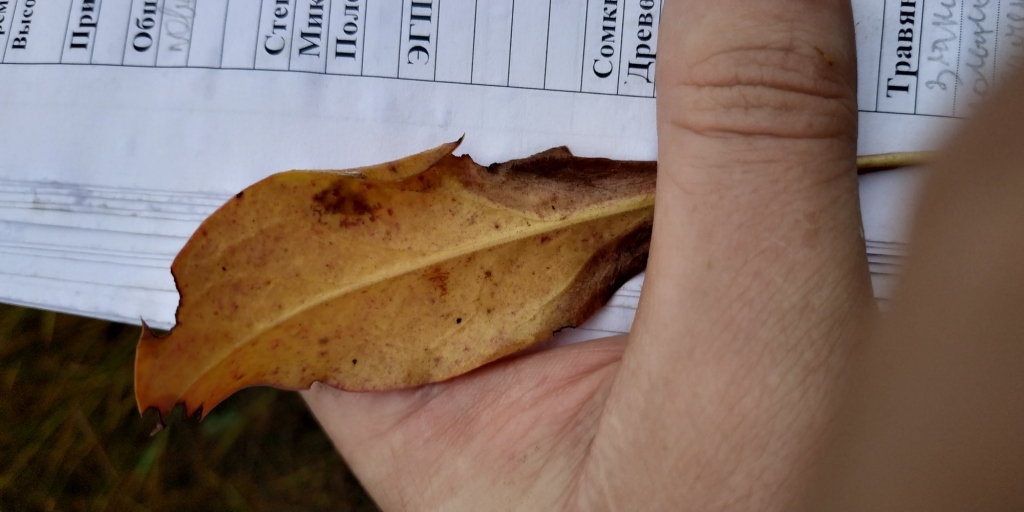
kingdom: Plantae
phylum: Tracheophyta
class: Magnoliopsida
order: Caryophyllales
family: Plumbaginaceae
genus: Limonium
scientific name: Limonium gmelini
